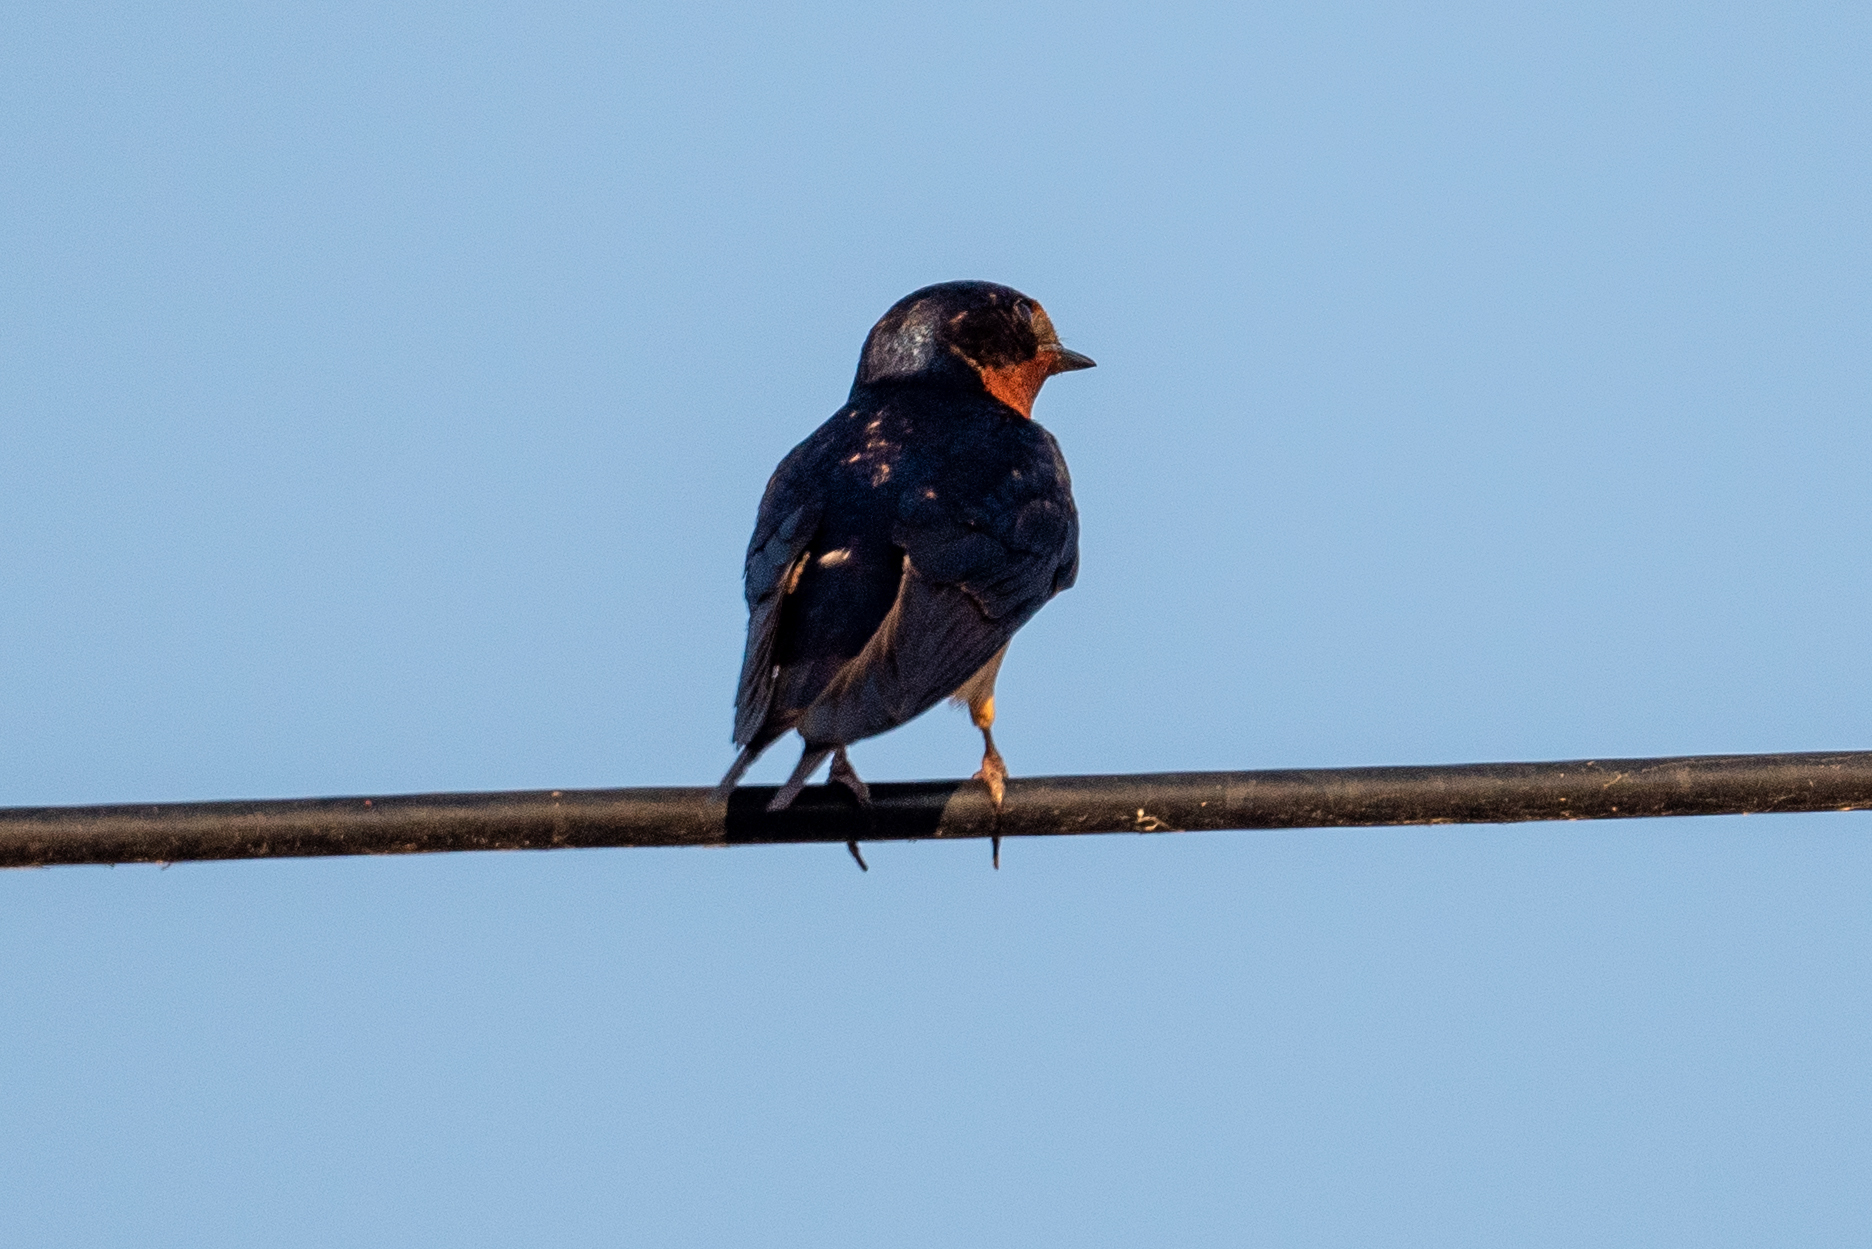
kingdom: Animalia
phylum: Chordata
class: Aves
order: Passeriformes
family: Hirundinidae
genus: Hirundo
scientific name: Hirundo rustica
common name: Barn swallow
